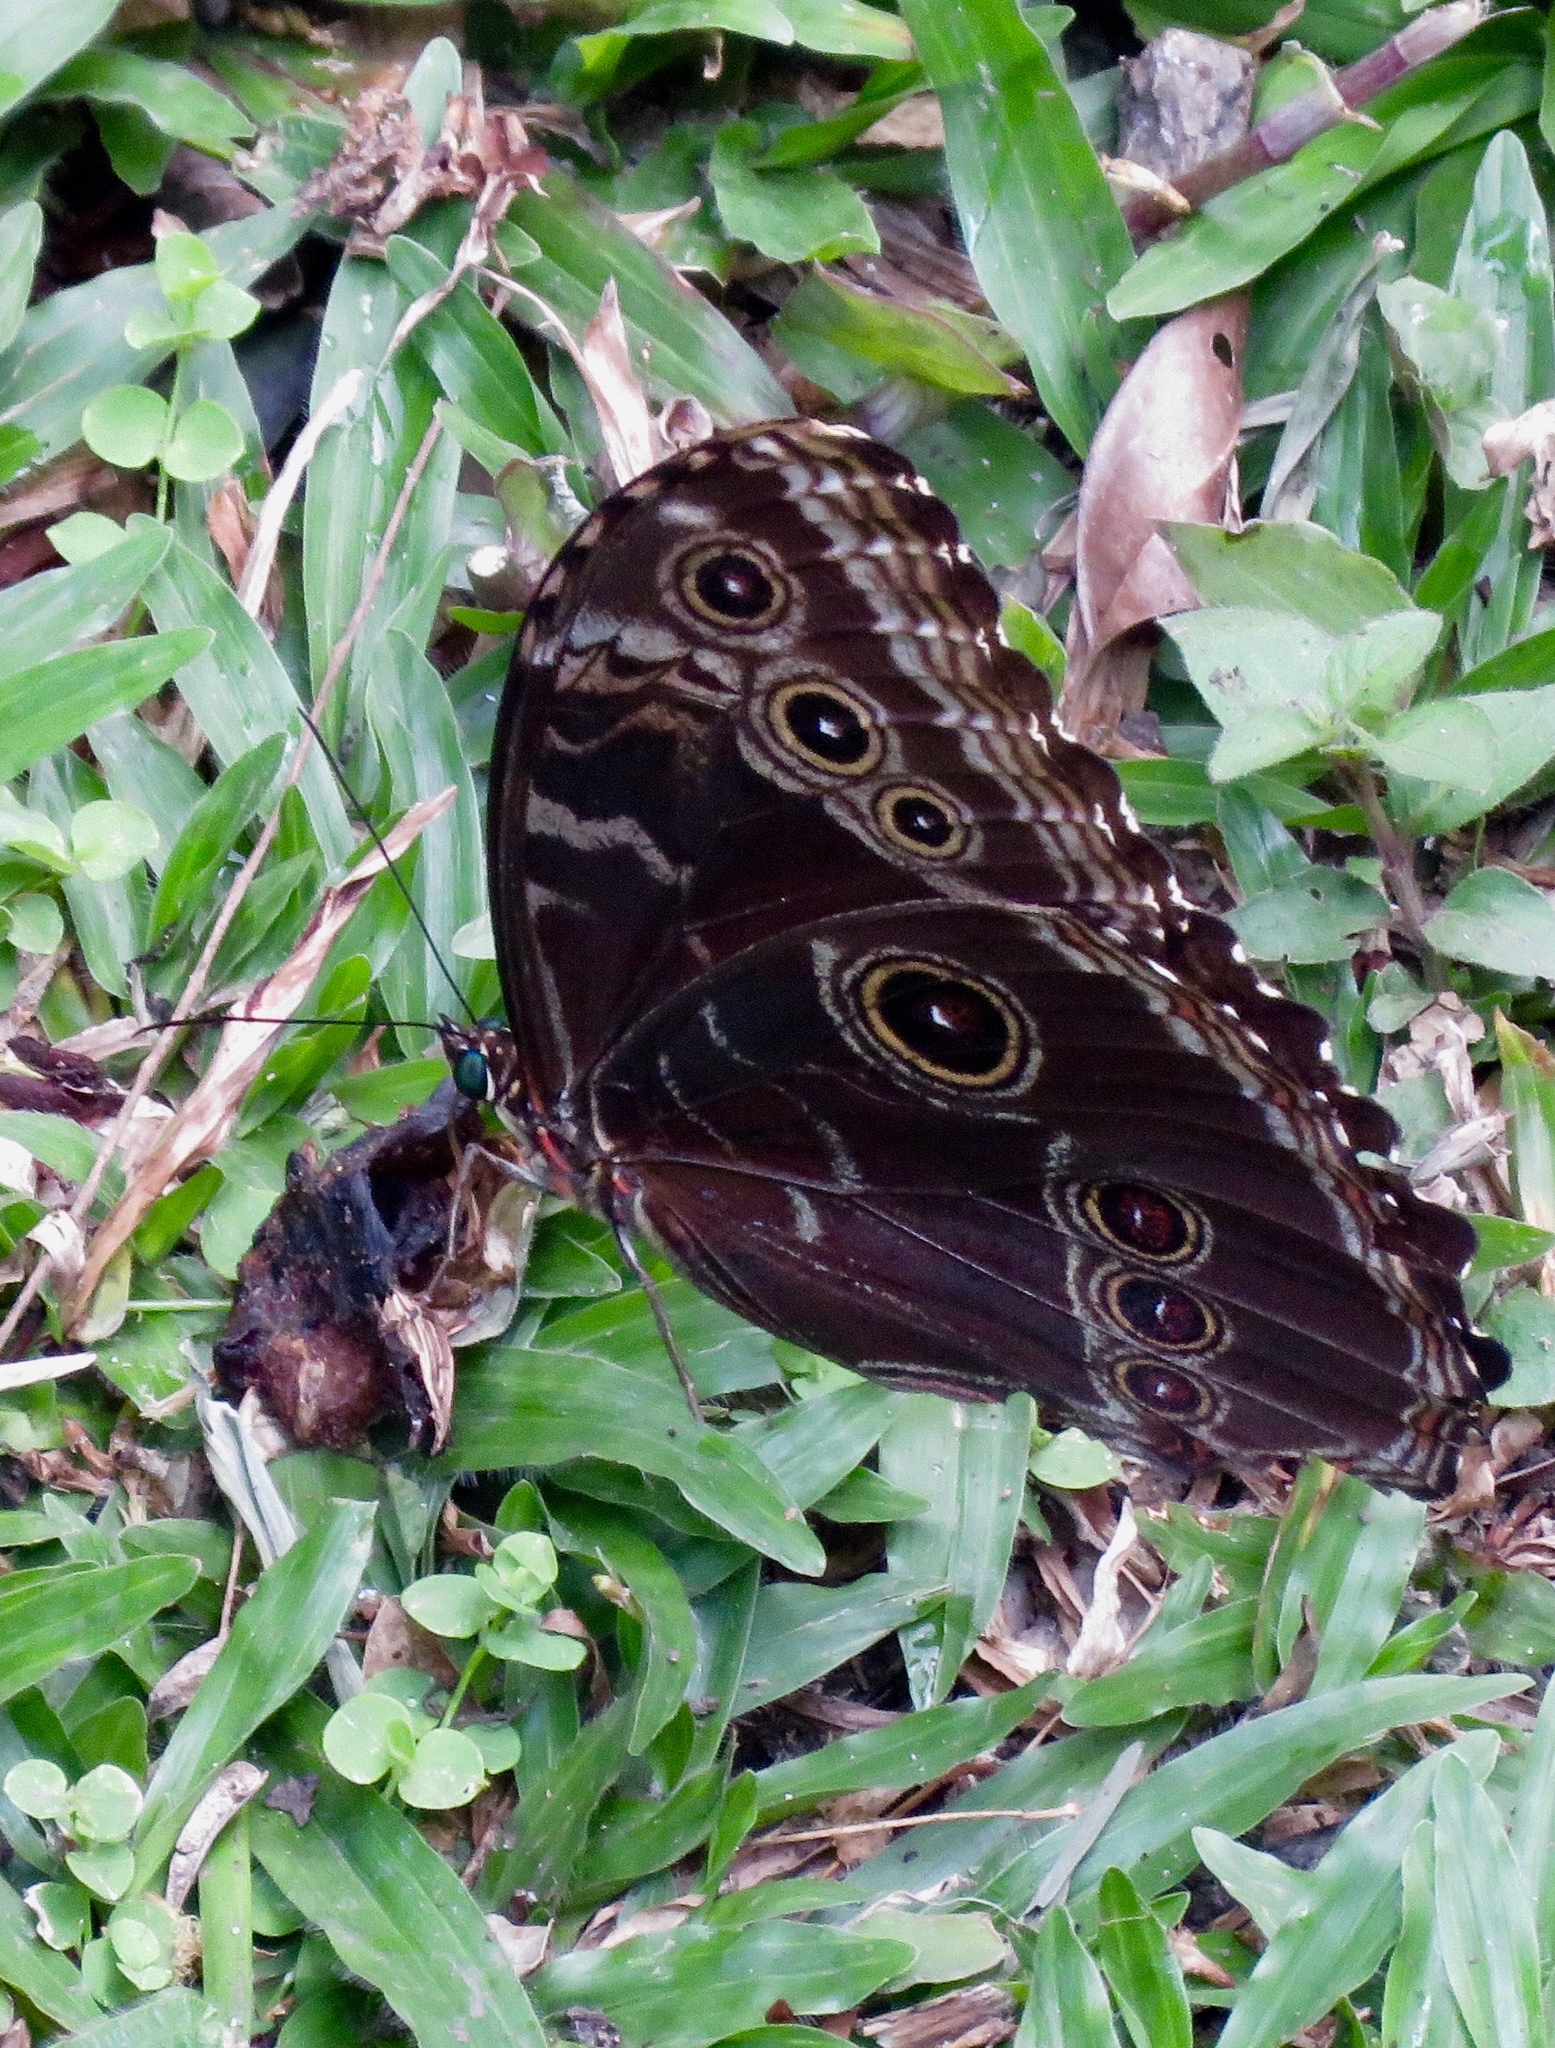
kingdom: Animalia
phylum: Arthropoda
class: Insecta
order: Lepidoptera
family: Nymphalidae
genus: Morpho
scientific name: Morpho helenor
